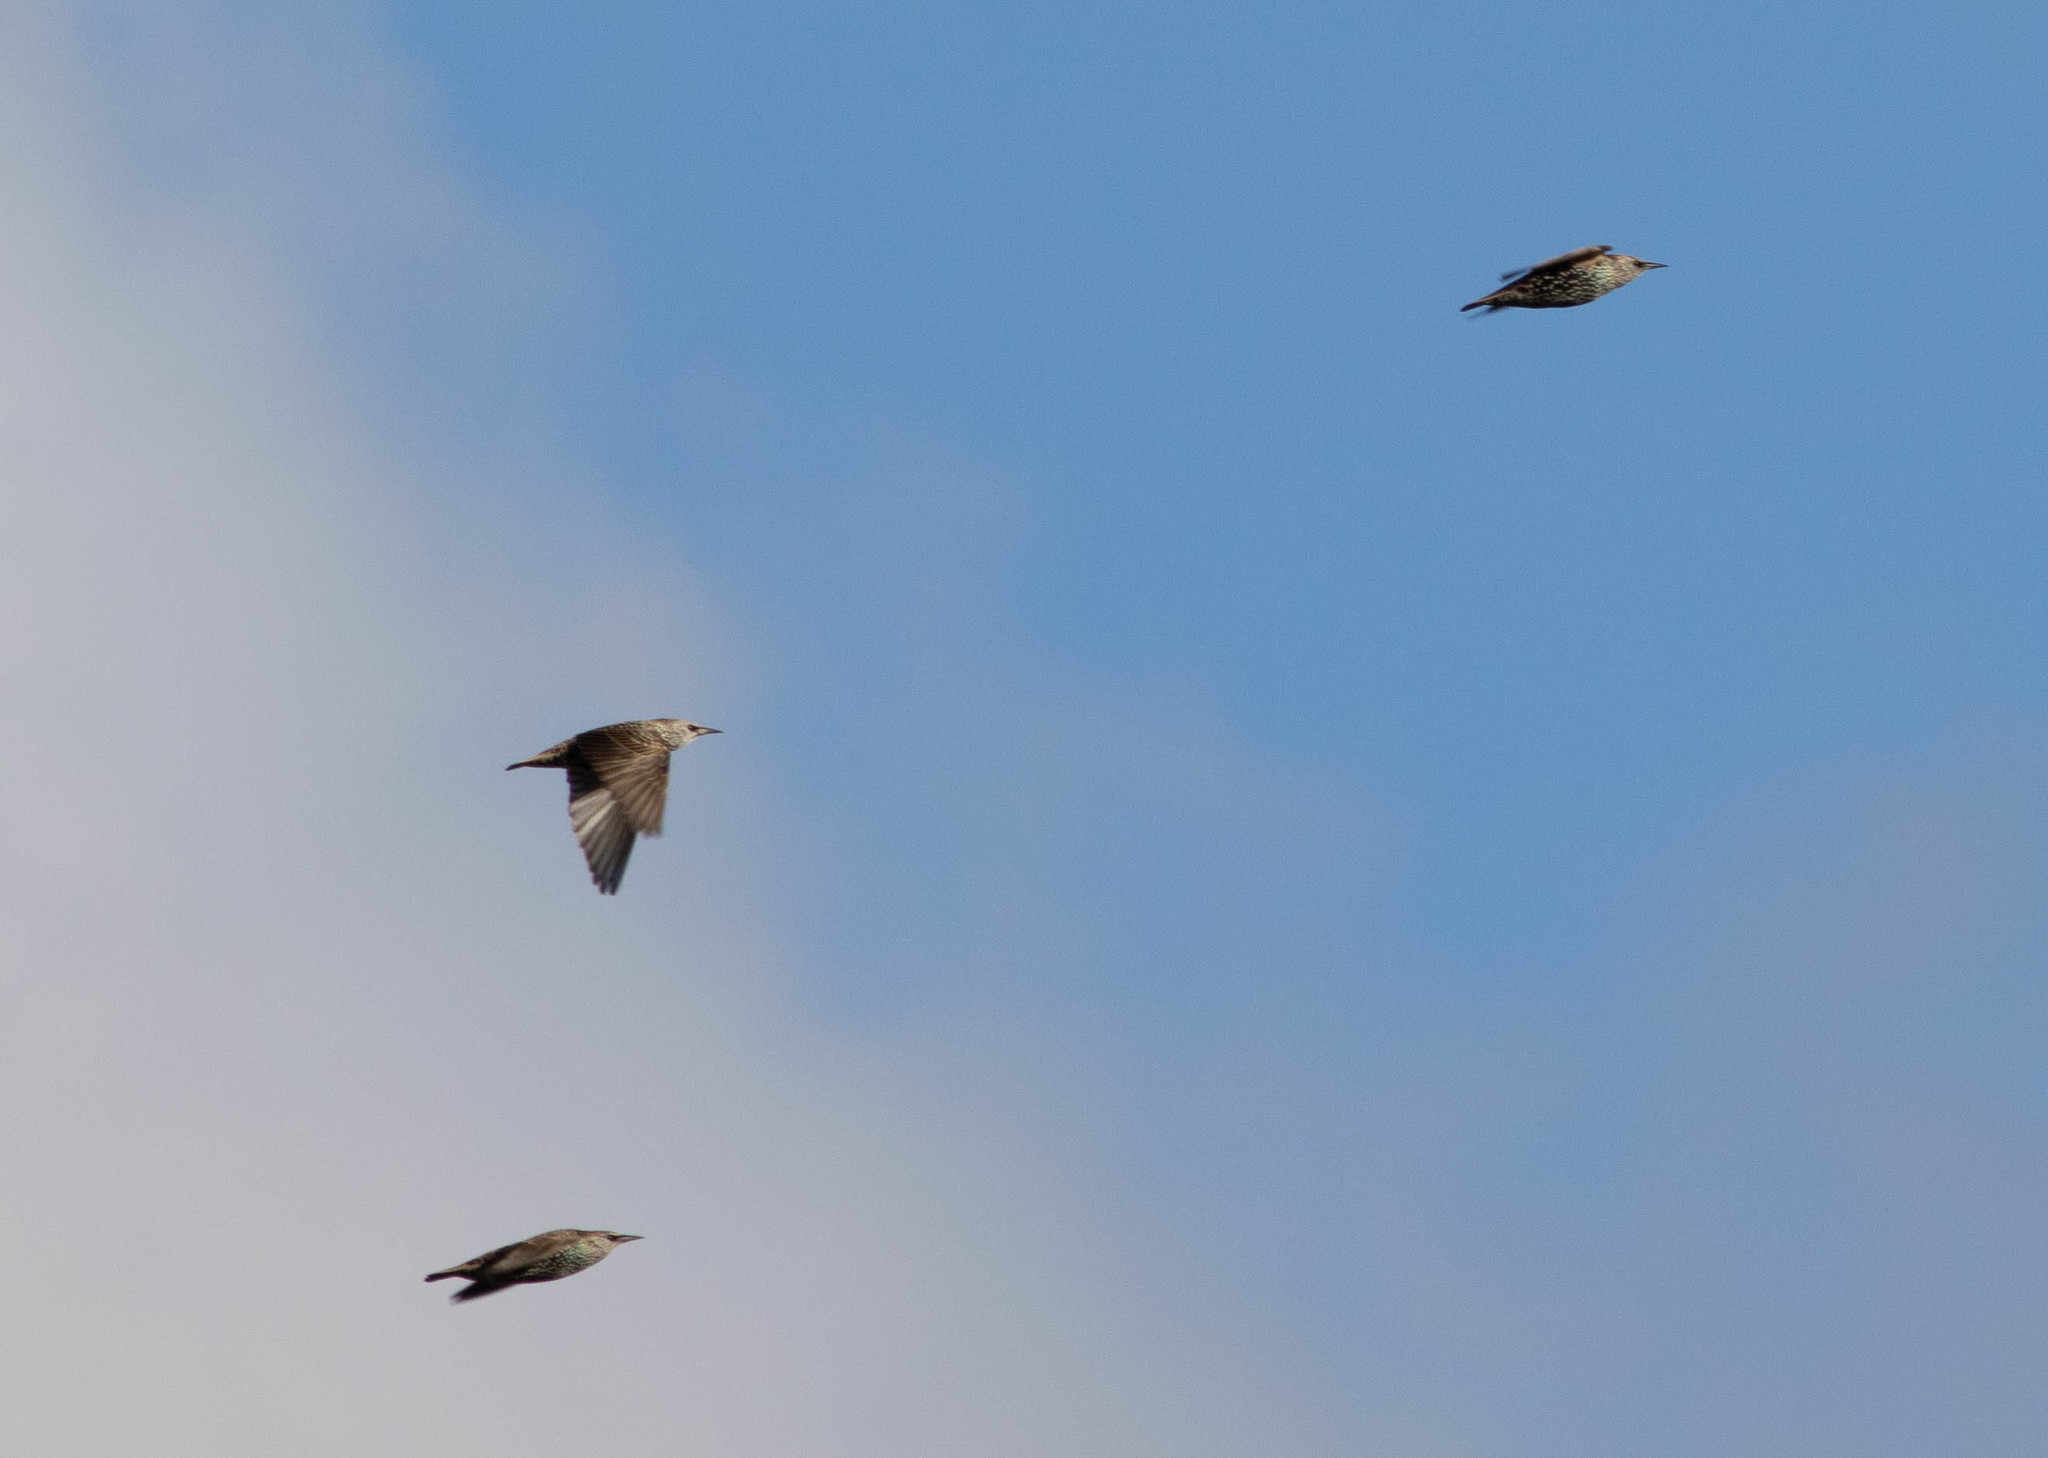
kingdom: Animalia
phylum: Chordata
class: Aves
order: Passeriformes
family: Sturnidae
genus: Sturnus
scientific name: Sturnus vulgaris
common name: Common starling
